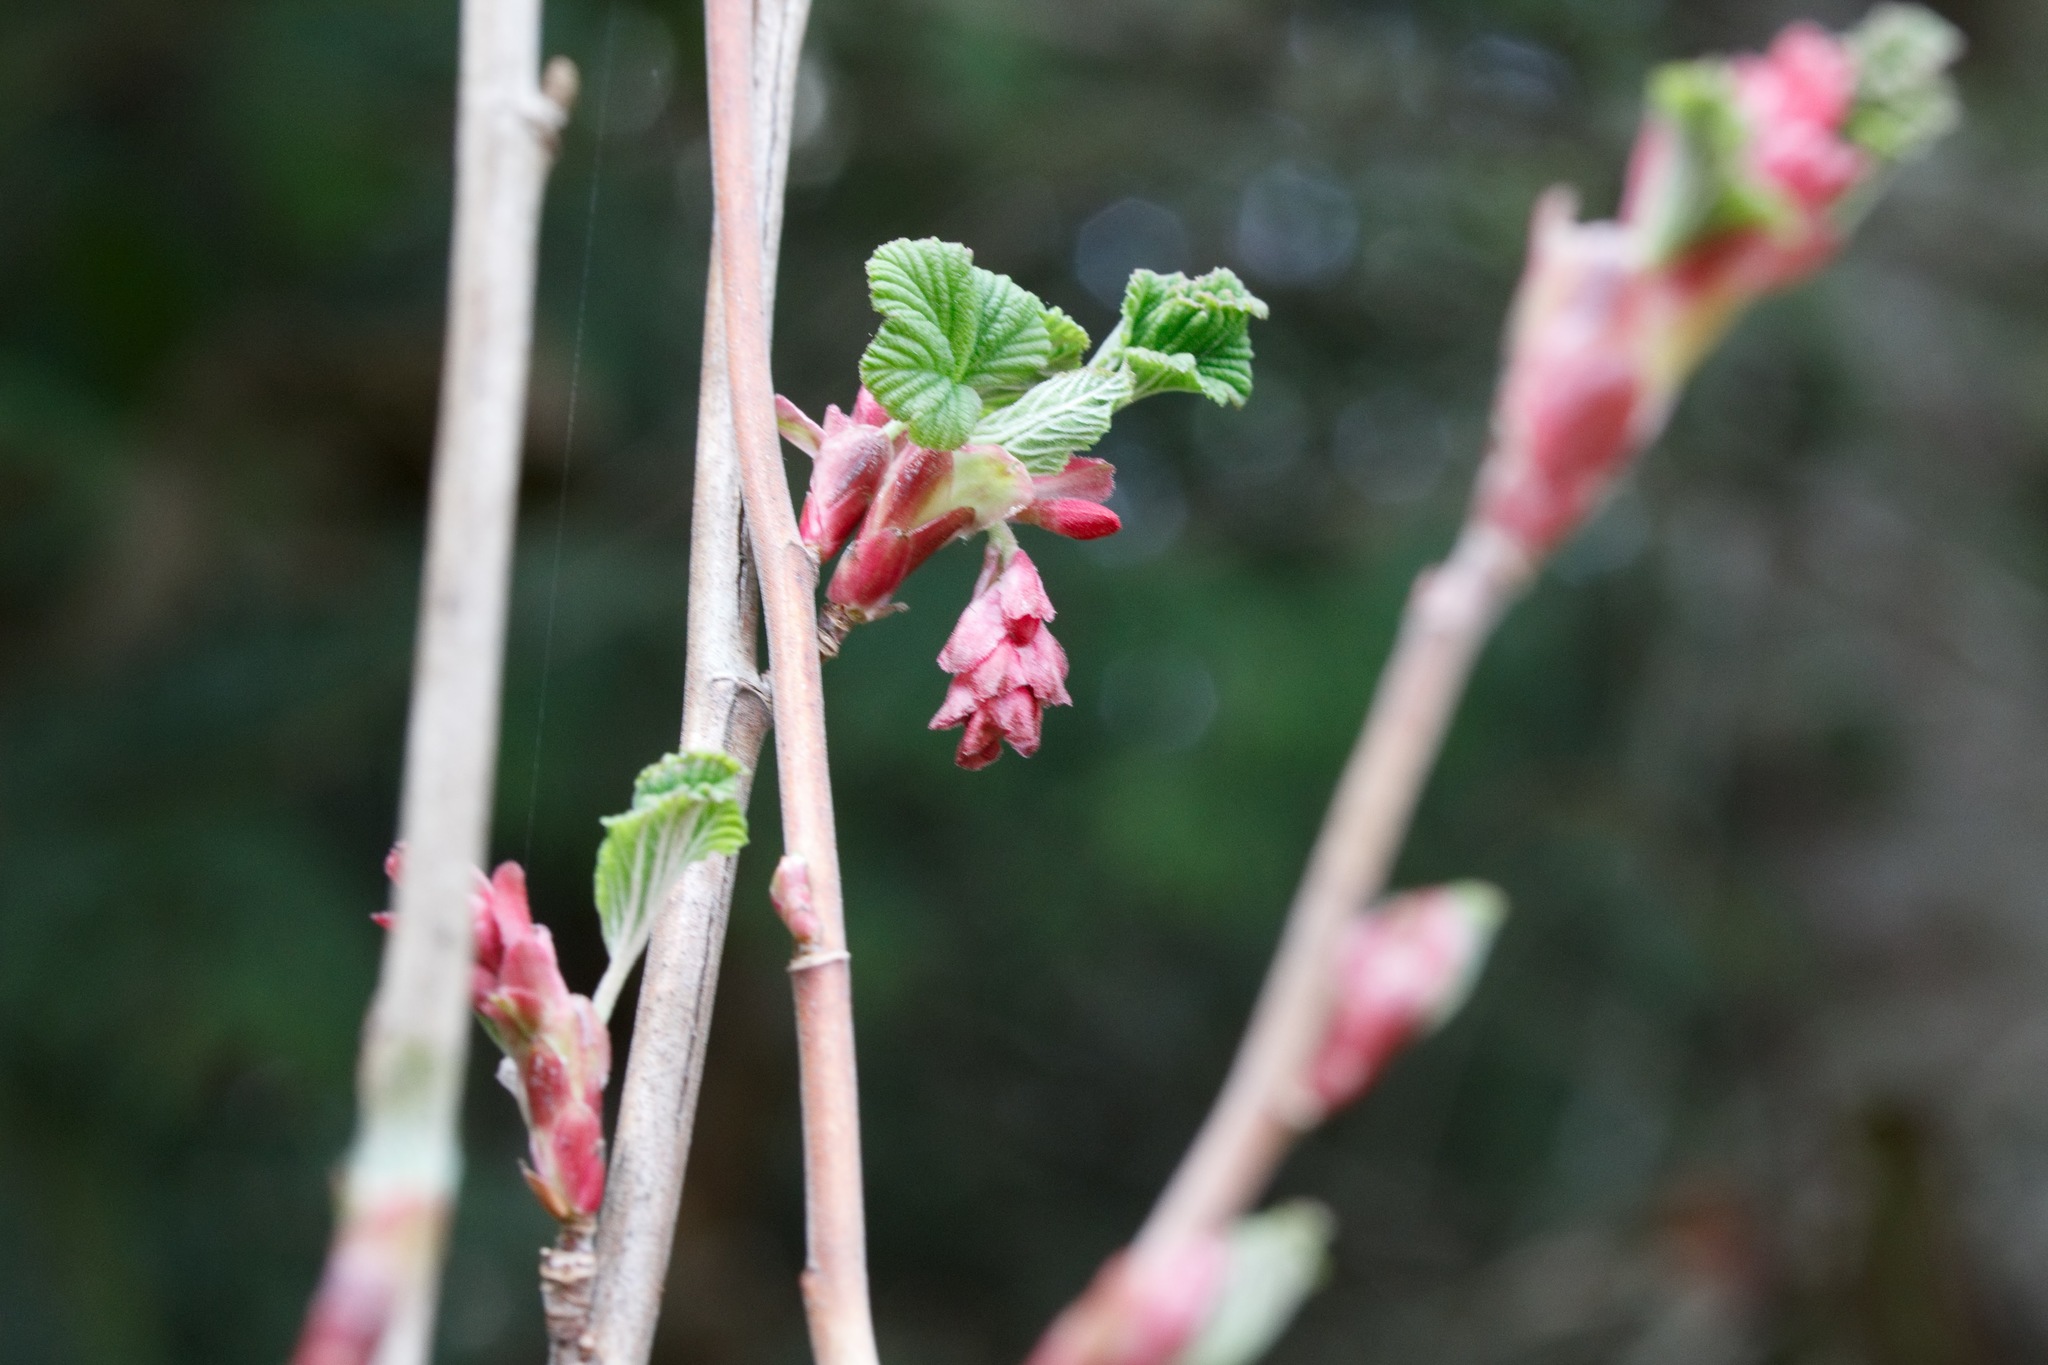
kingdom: Plantae
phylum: Tracheophyta
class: Magnoliopsida
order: Saxifragales
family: Grossulariaceae
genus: Ribes
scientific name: Ribes sanguineum
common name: Flowering currant
